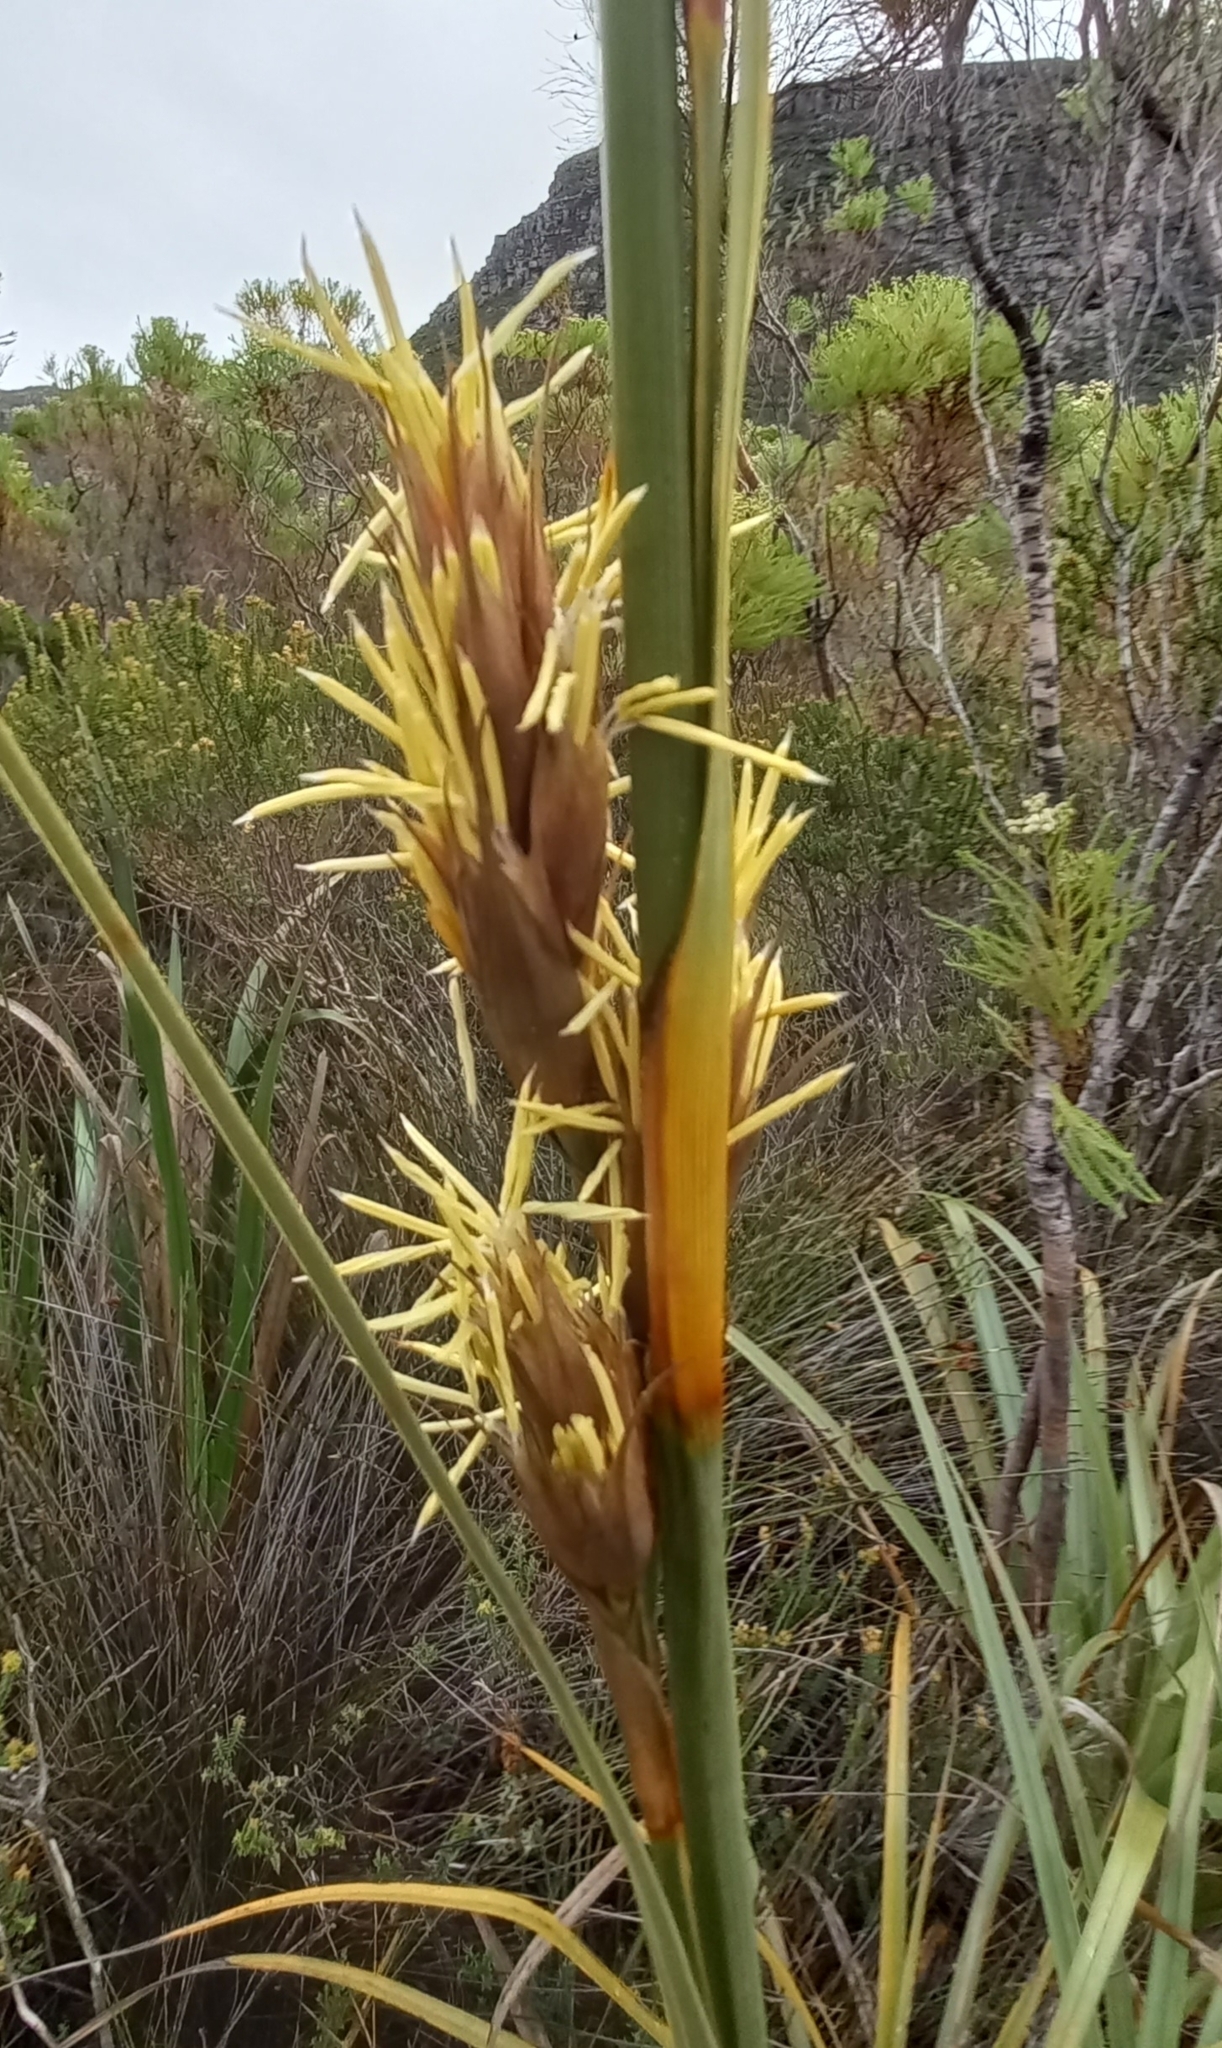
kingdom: Plantae
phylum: Tracheophyta
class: Liliopsida
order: Poales
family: Cyperaceae
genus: Tetraria
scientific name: Tetraria thermalis
